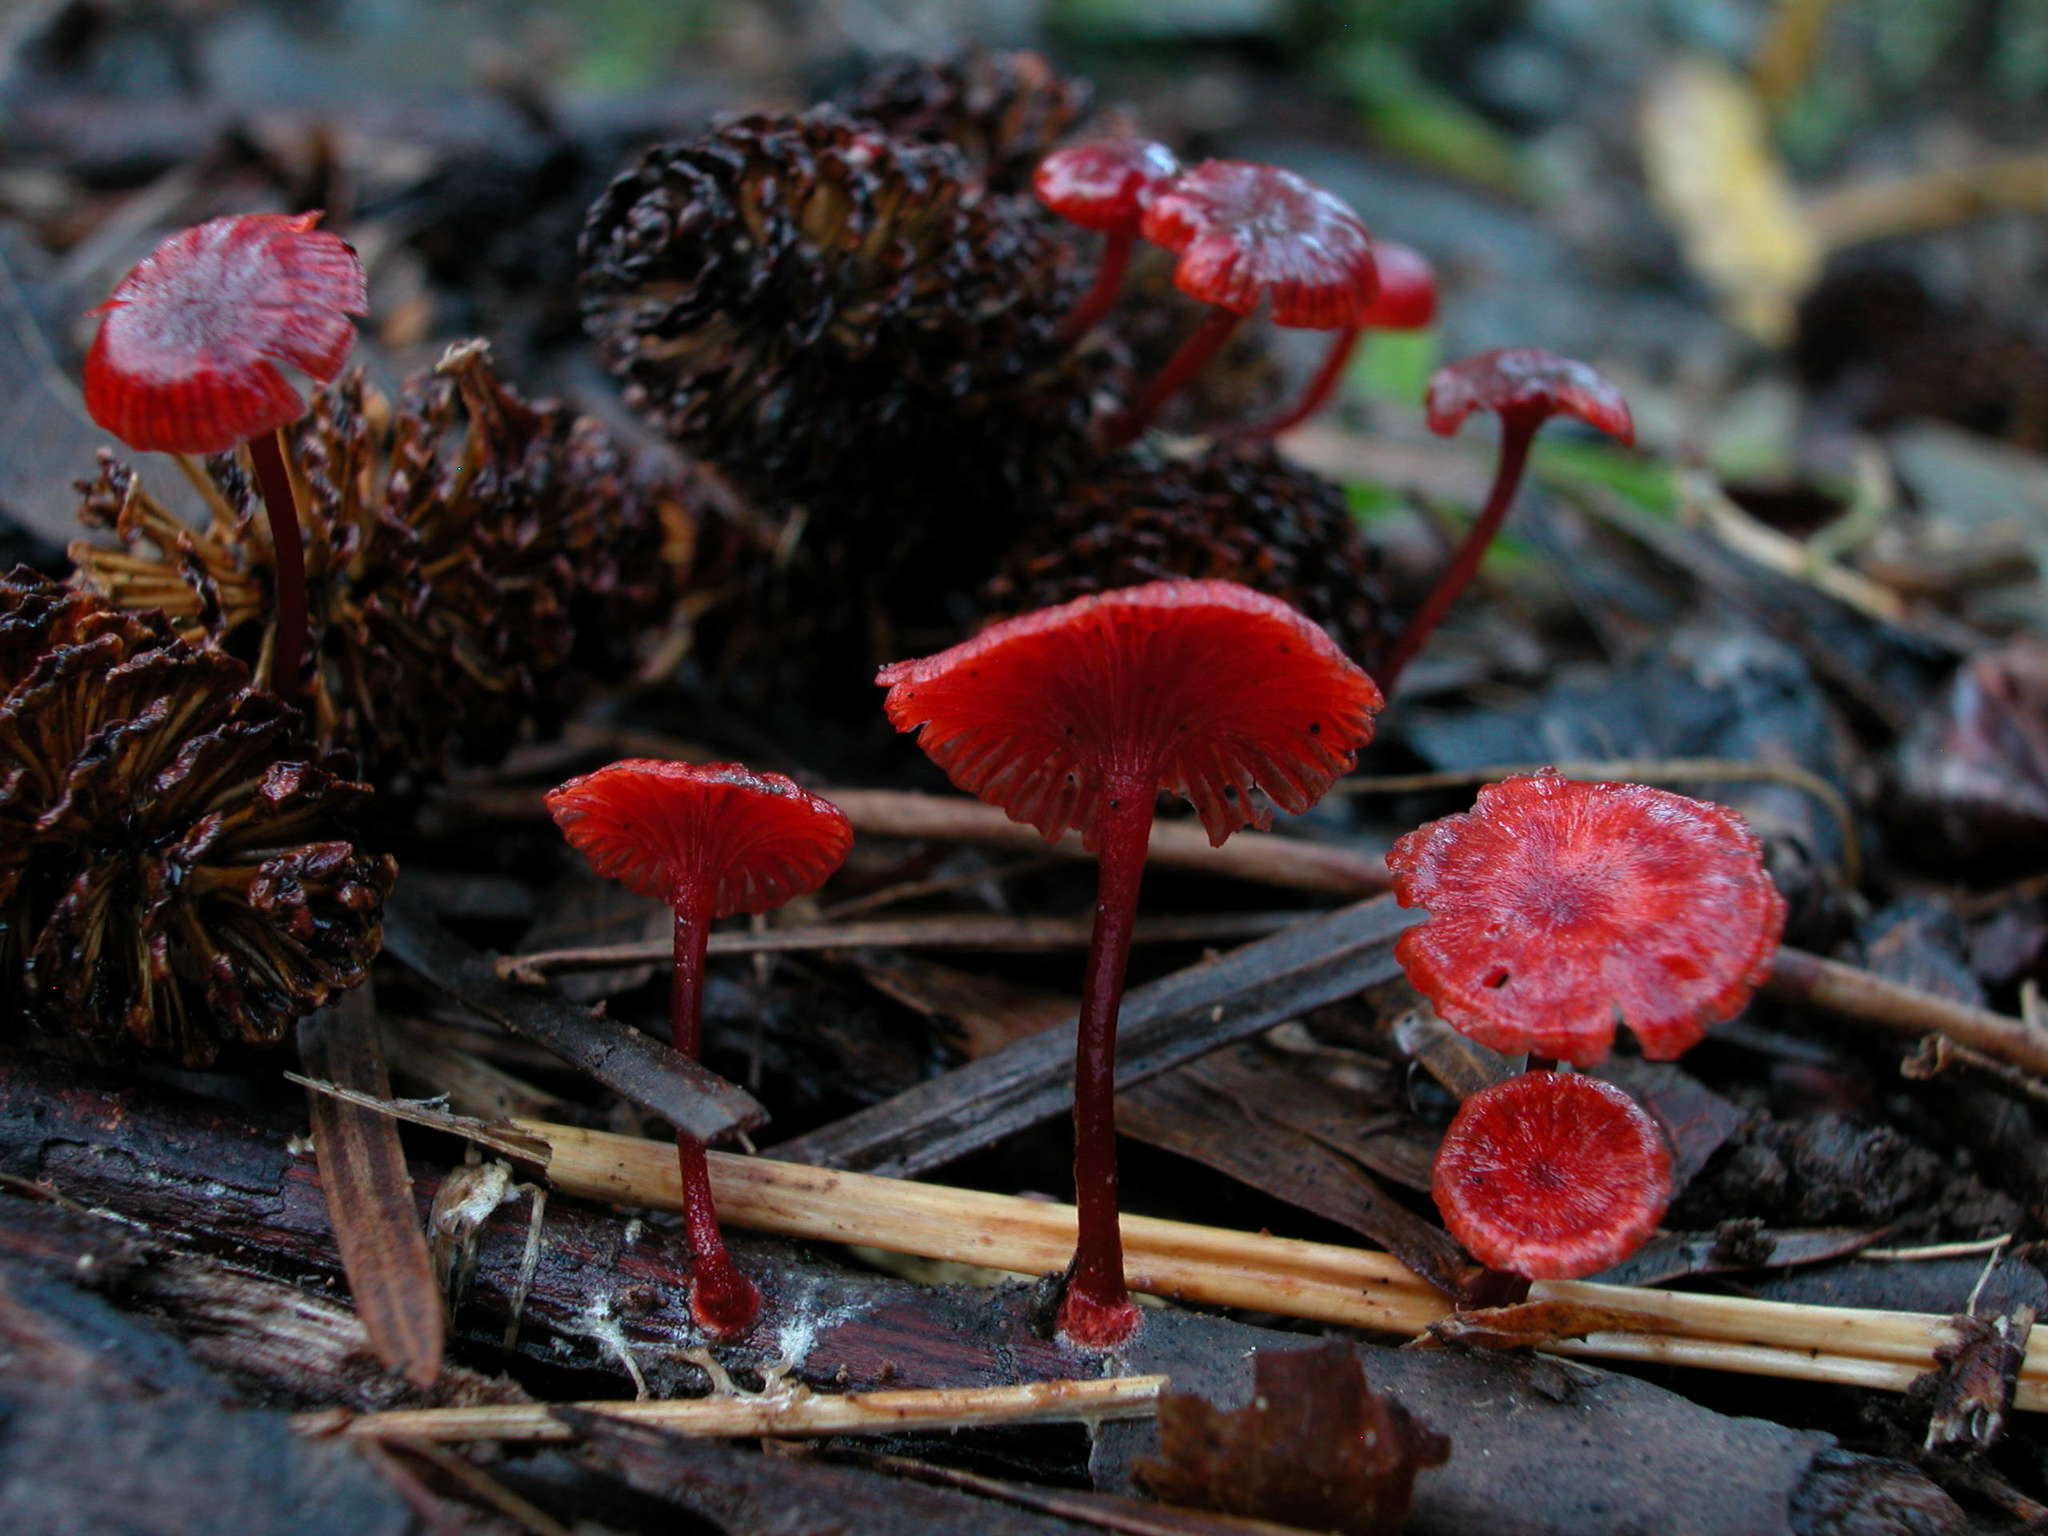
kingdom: Fungi
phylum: Basidiomycota
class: Agaricomycetes
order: Agaricales
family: Mycenaceae
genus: Cruentomycena
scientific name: Cruentomycena kedrovayae
